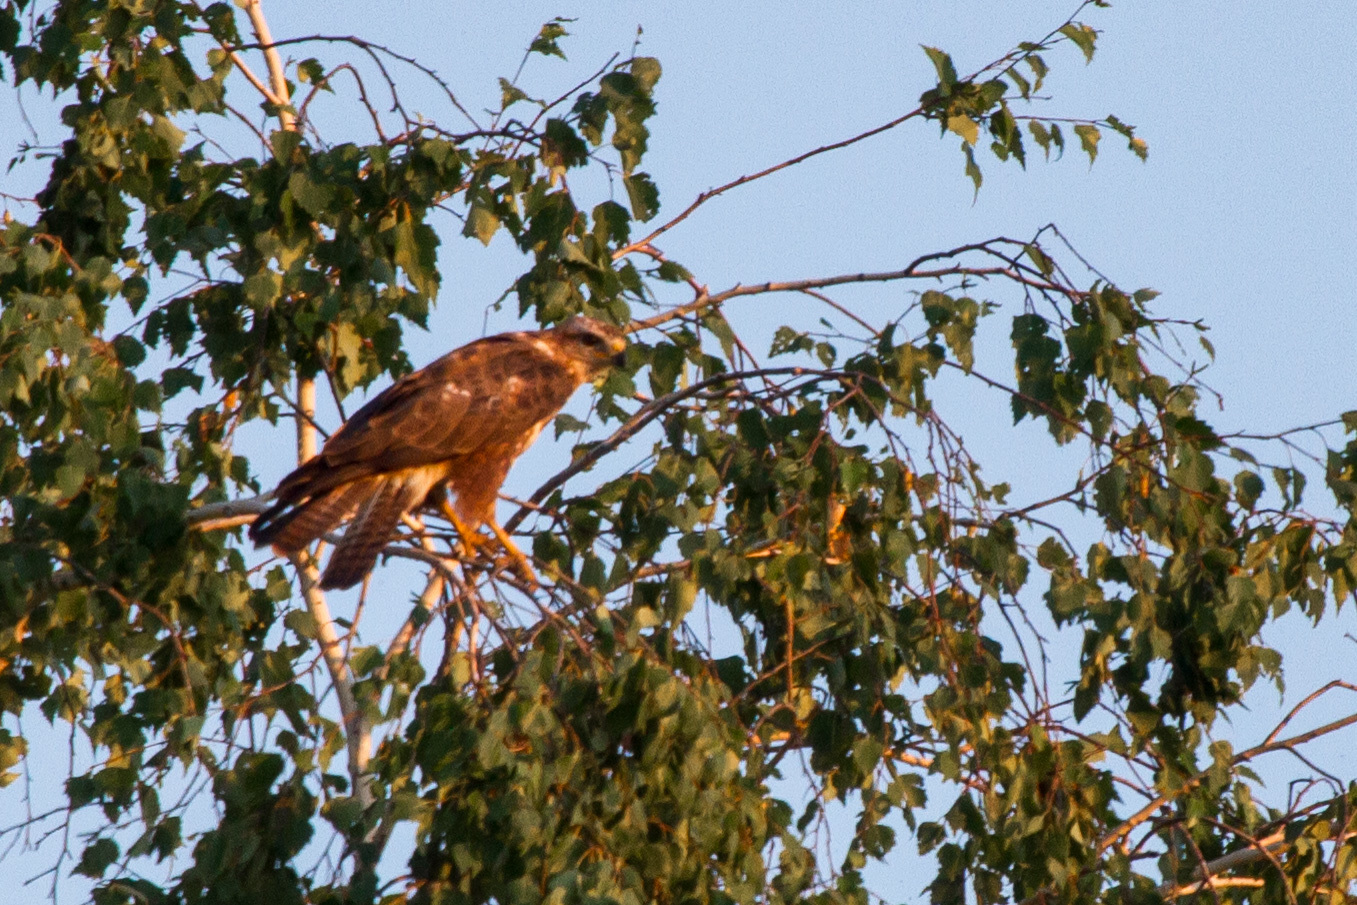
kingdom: Animalia
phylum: Chordata
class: Aves
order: Accipitriformes
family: Accipitridae
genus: Buteo
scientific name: Buteo buteo
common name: Common buzzard
